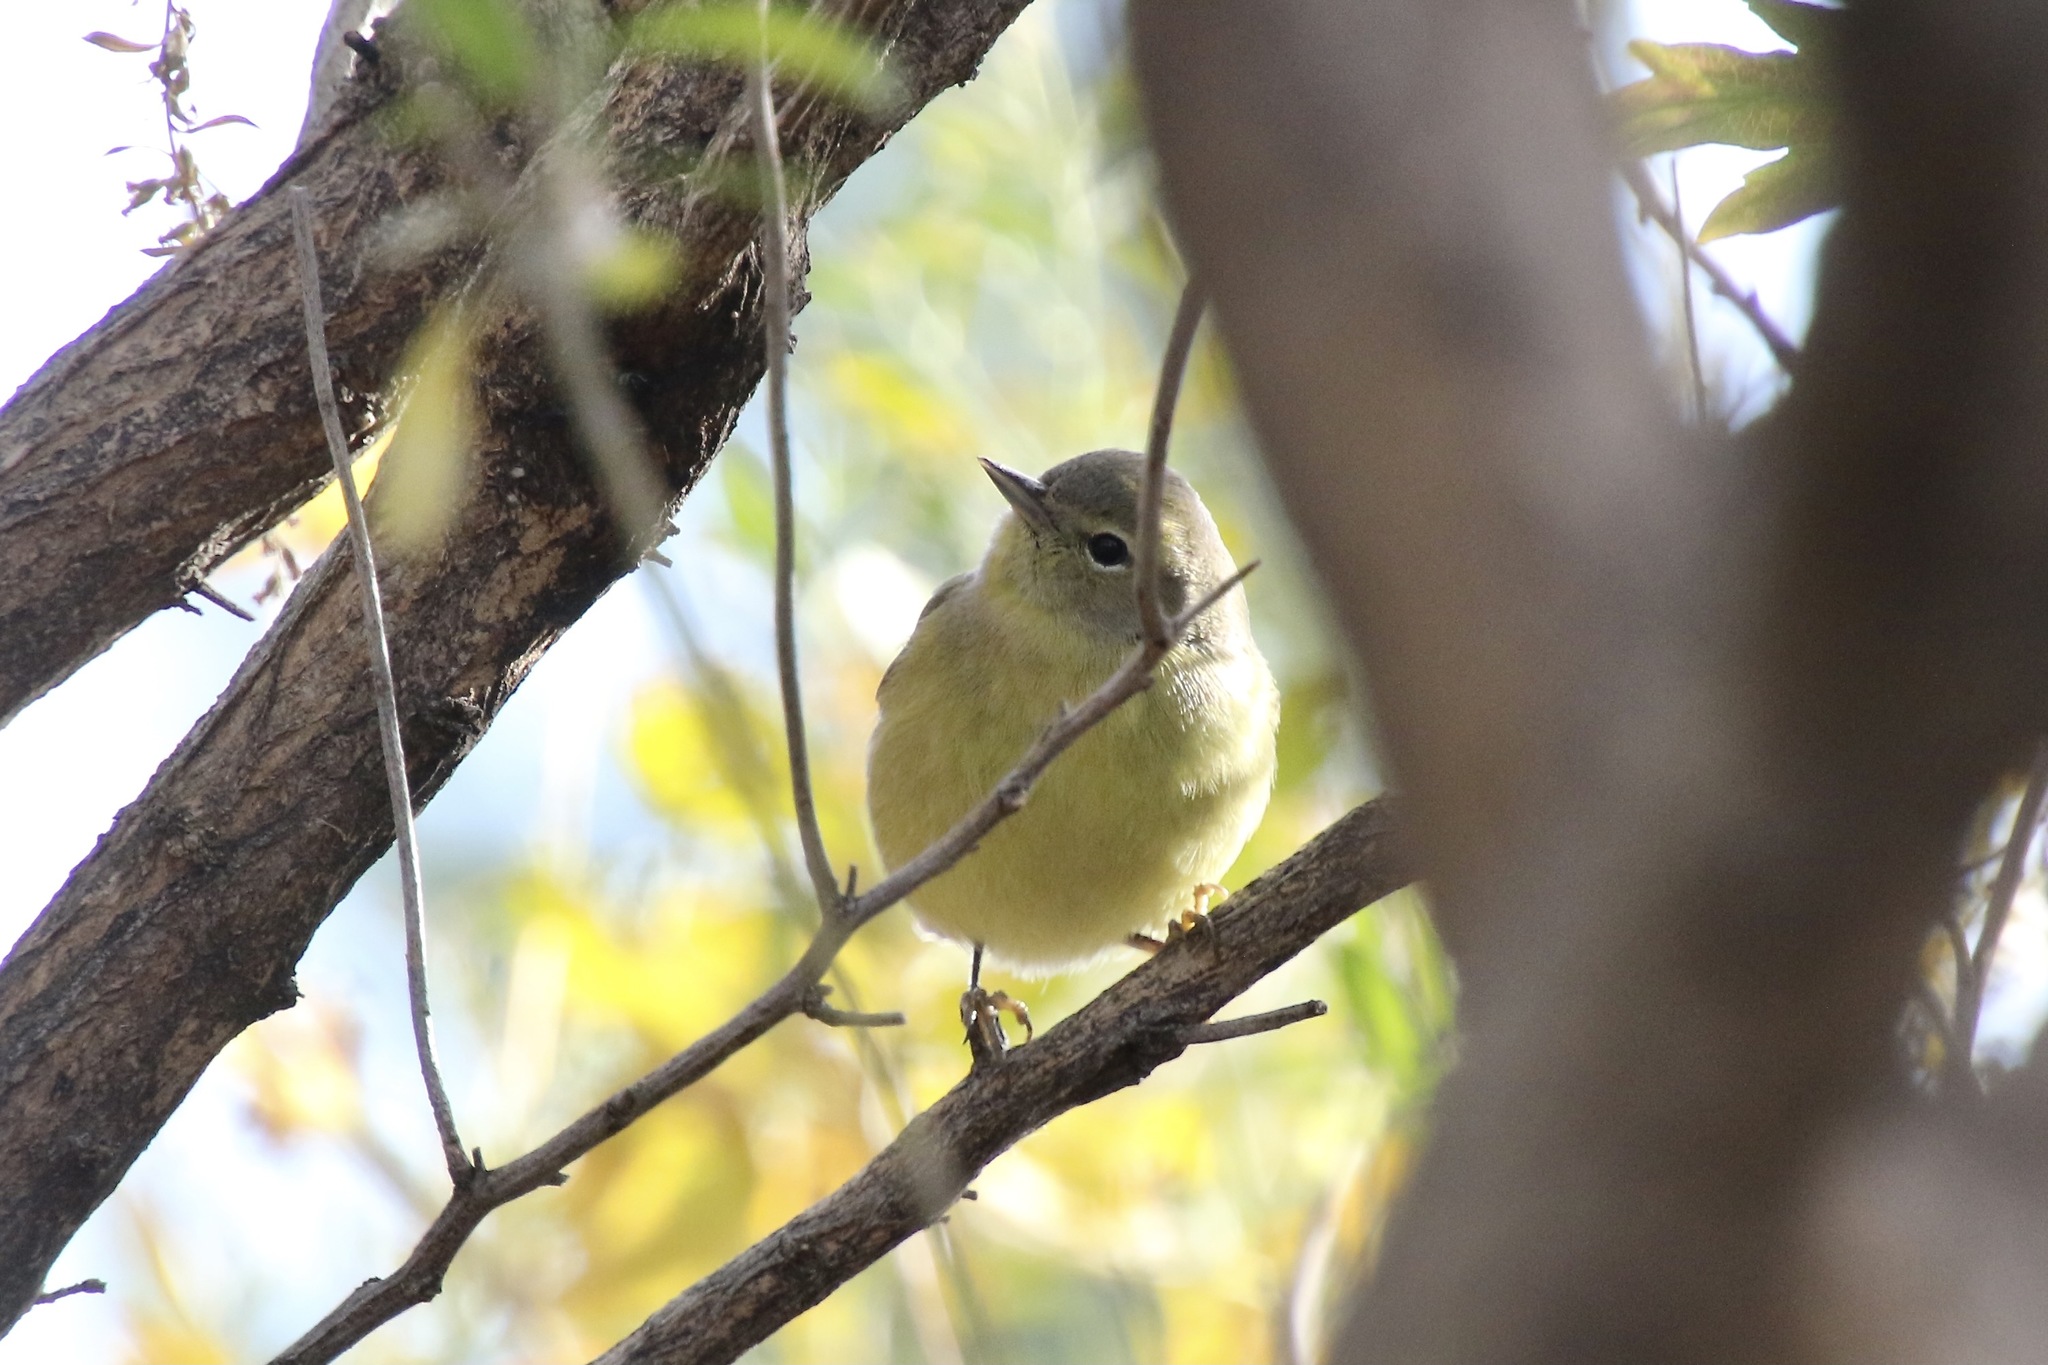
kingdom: Animalia
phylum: Chordata
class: Aves
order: Passeriformes
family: Parulidae
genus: Leiothlypis
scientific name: Leiothlypis celata
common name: Orange-crowned warbler
